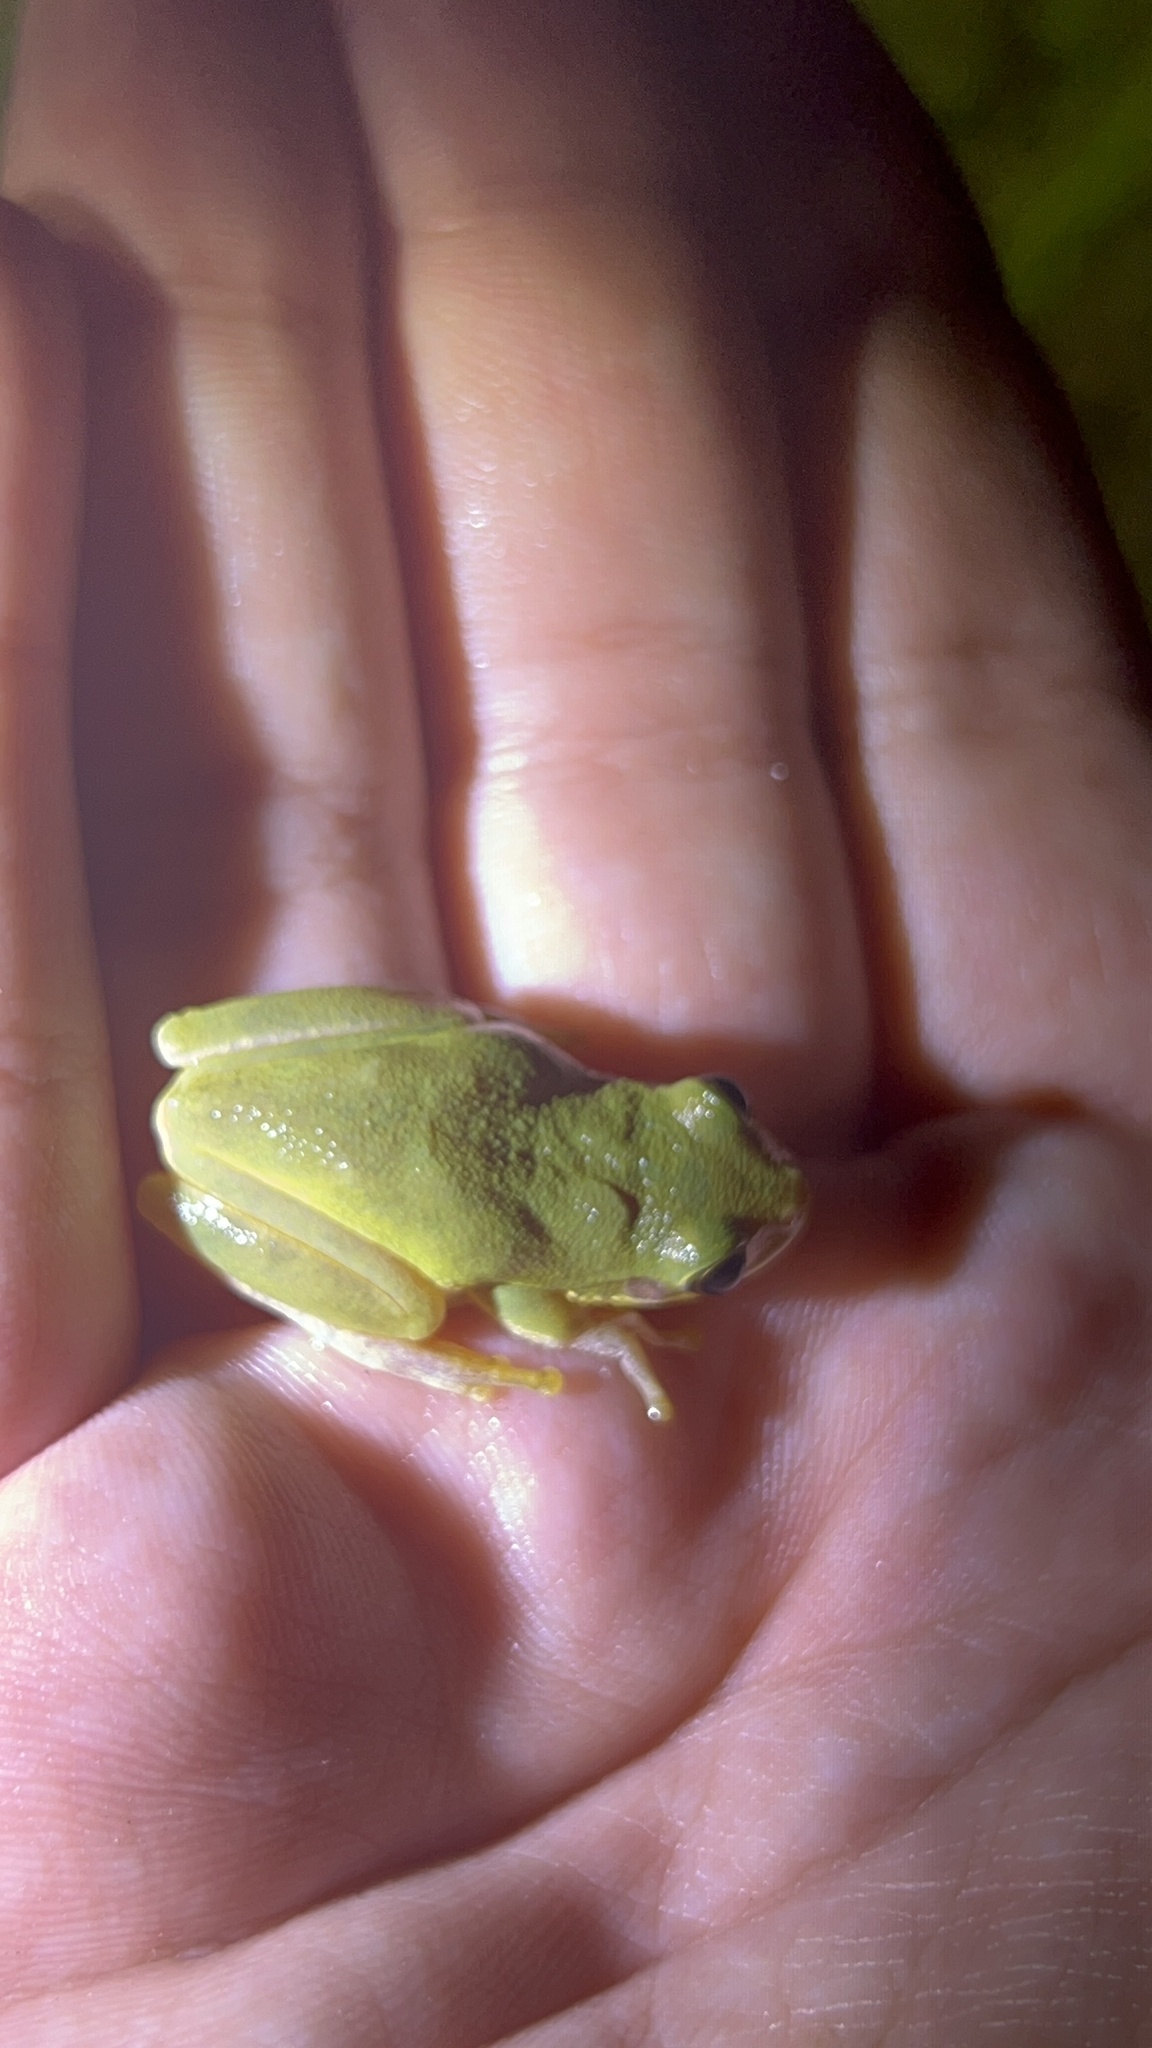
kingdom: Animalia
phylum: Chordata
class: Amphibia
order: Anura
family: Hylidae
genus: Dryophytes
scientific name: Dryophytes squirellus
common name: Squirrel treefrog
